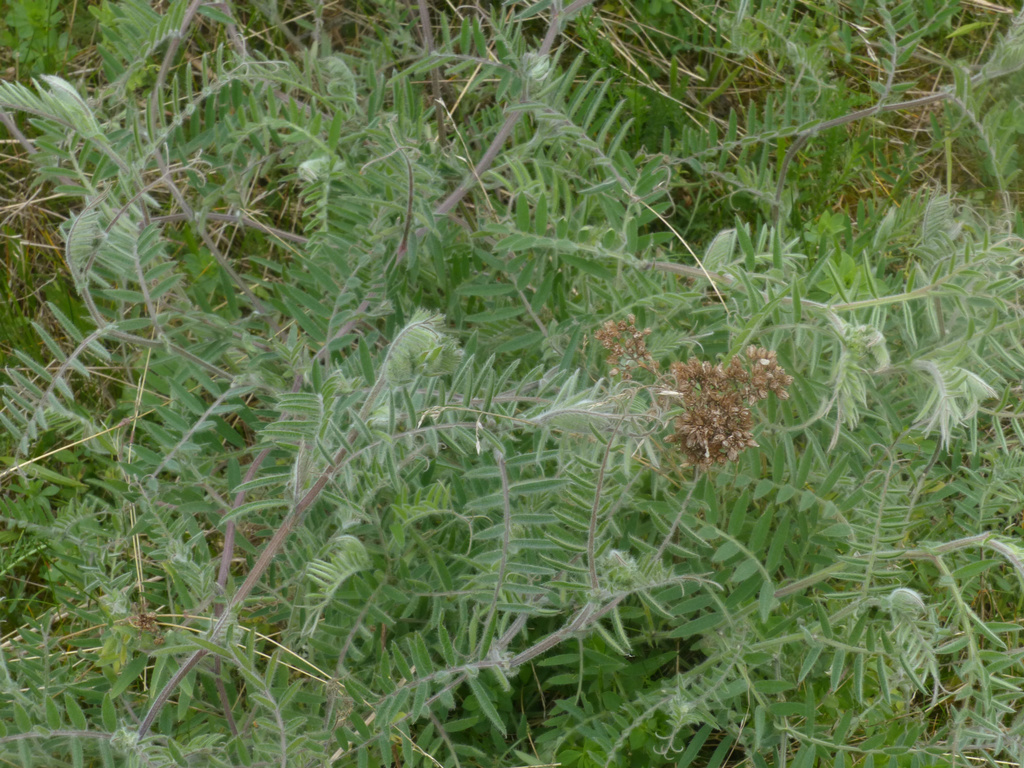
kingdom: Plantae
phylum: Tracheophyta
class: Magnoliopsida
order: Fabales
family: Fabaceae
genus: Vicia
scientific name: Vicia villosa
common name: Fodder vetch
